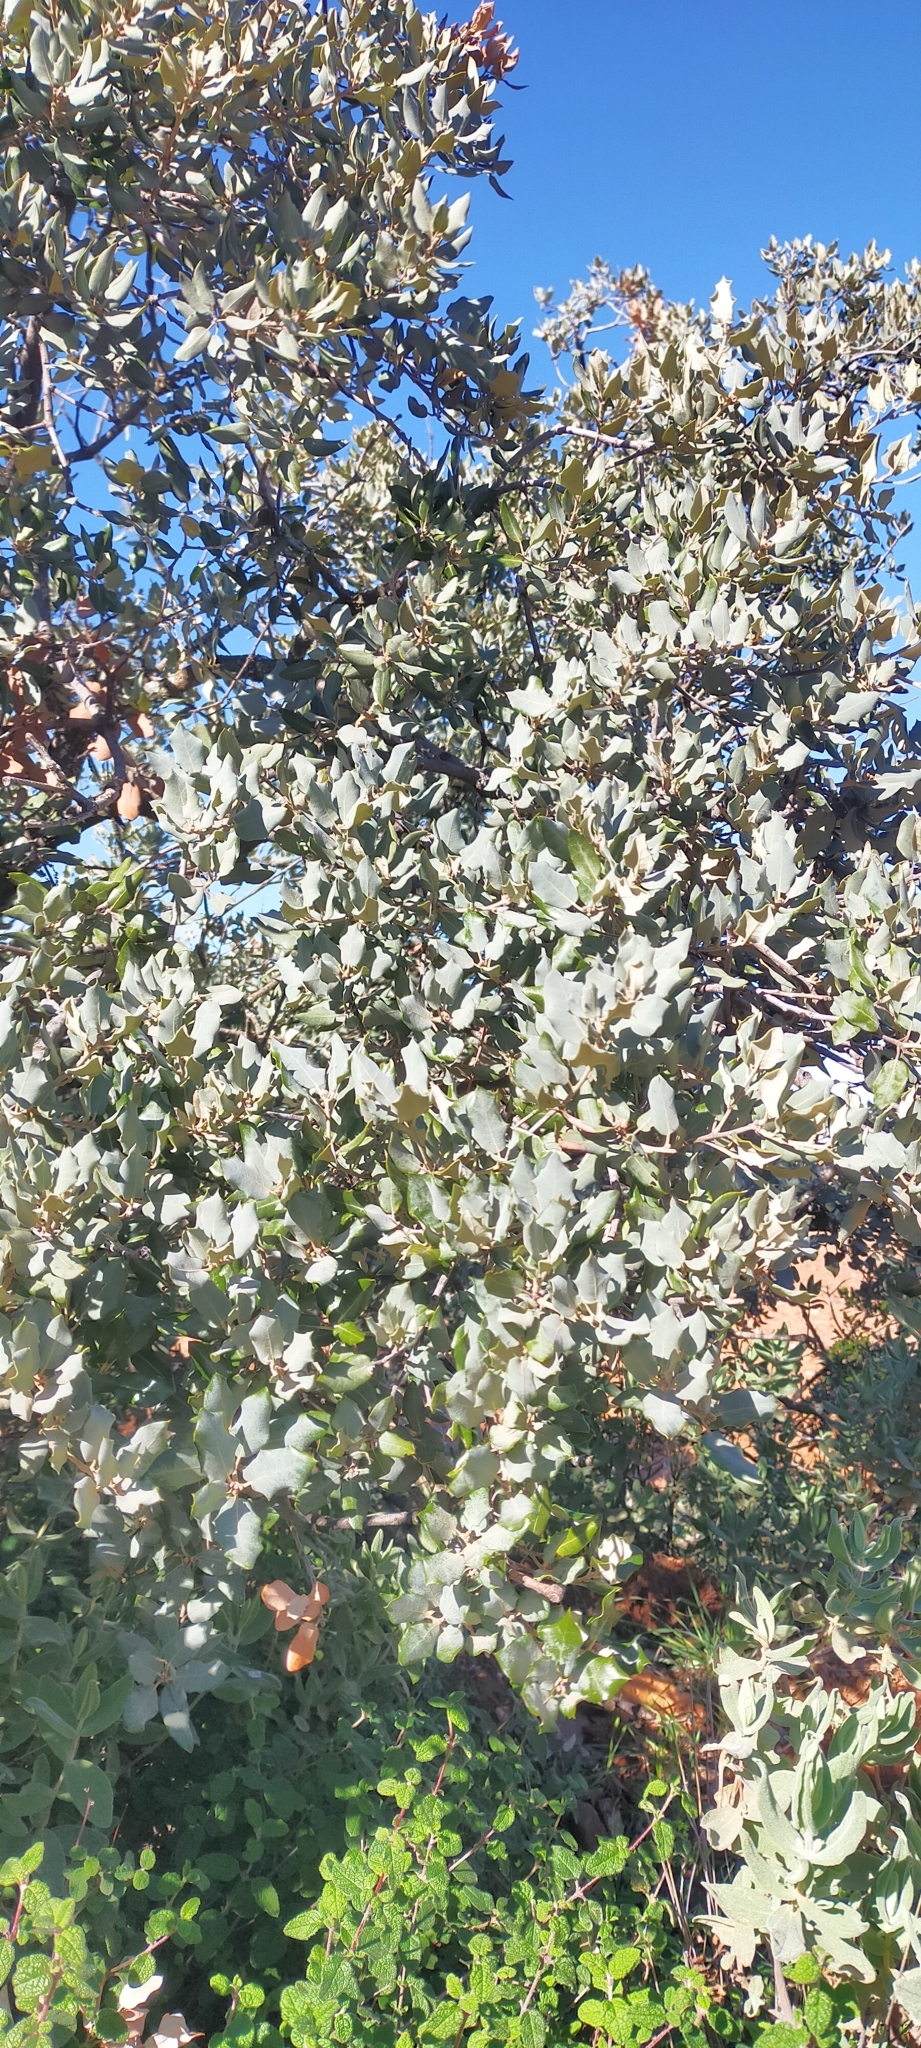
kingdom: Plantae
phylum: Tracheophyta
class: Magnoliopsida
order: Fagales
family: Fagaceae
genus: Quercus
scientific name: Quercus rotundifolia
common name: Holm oak
